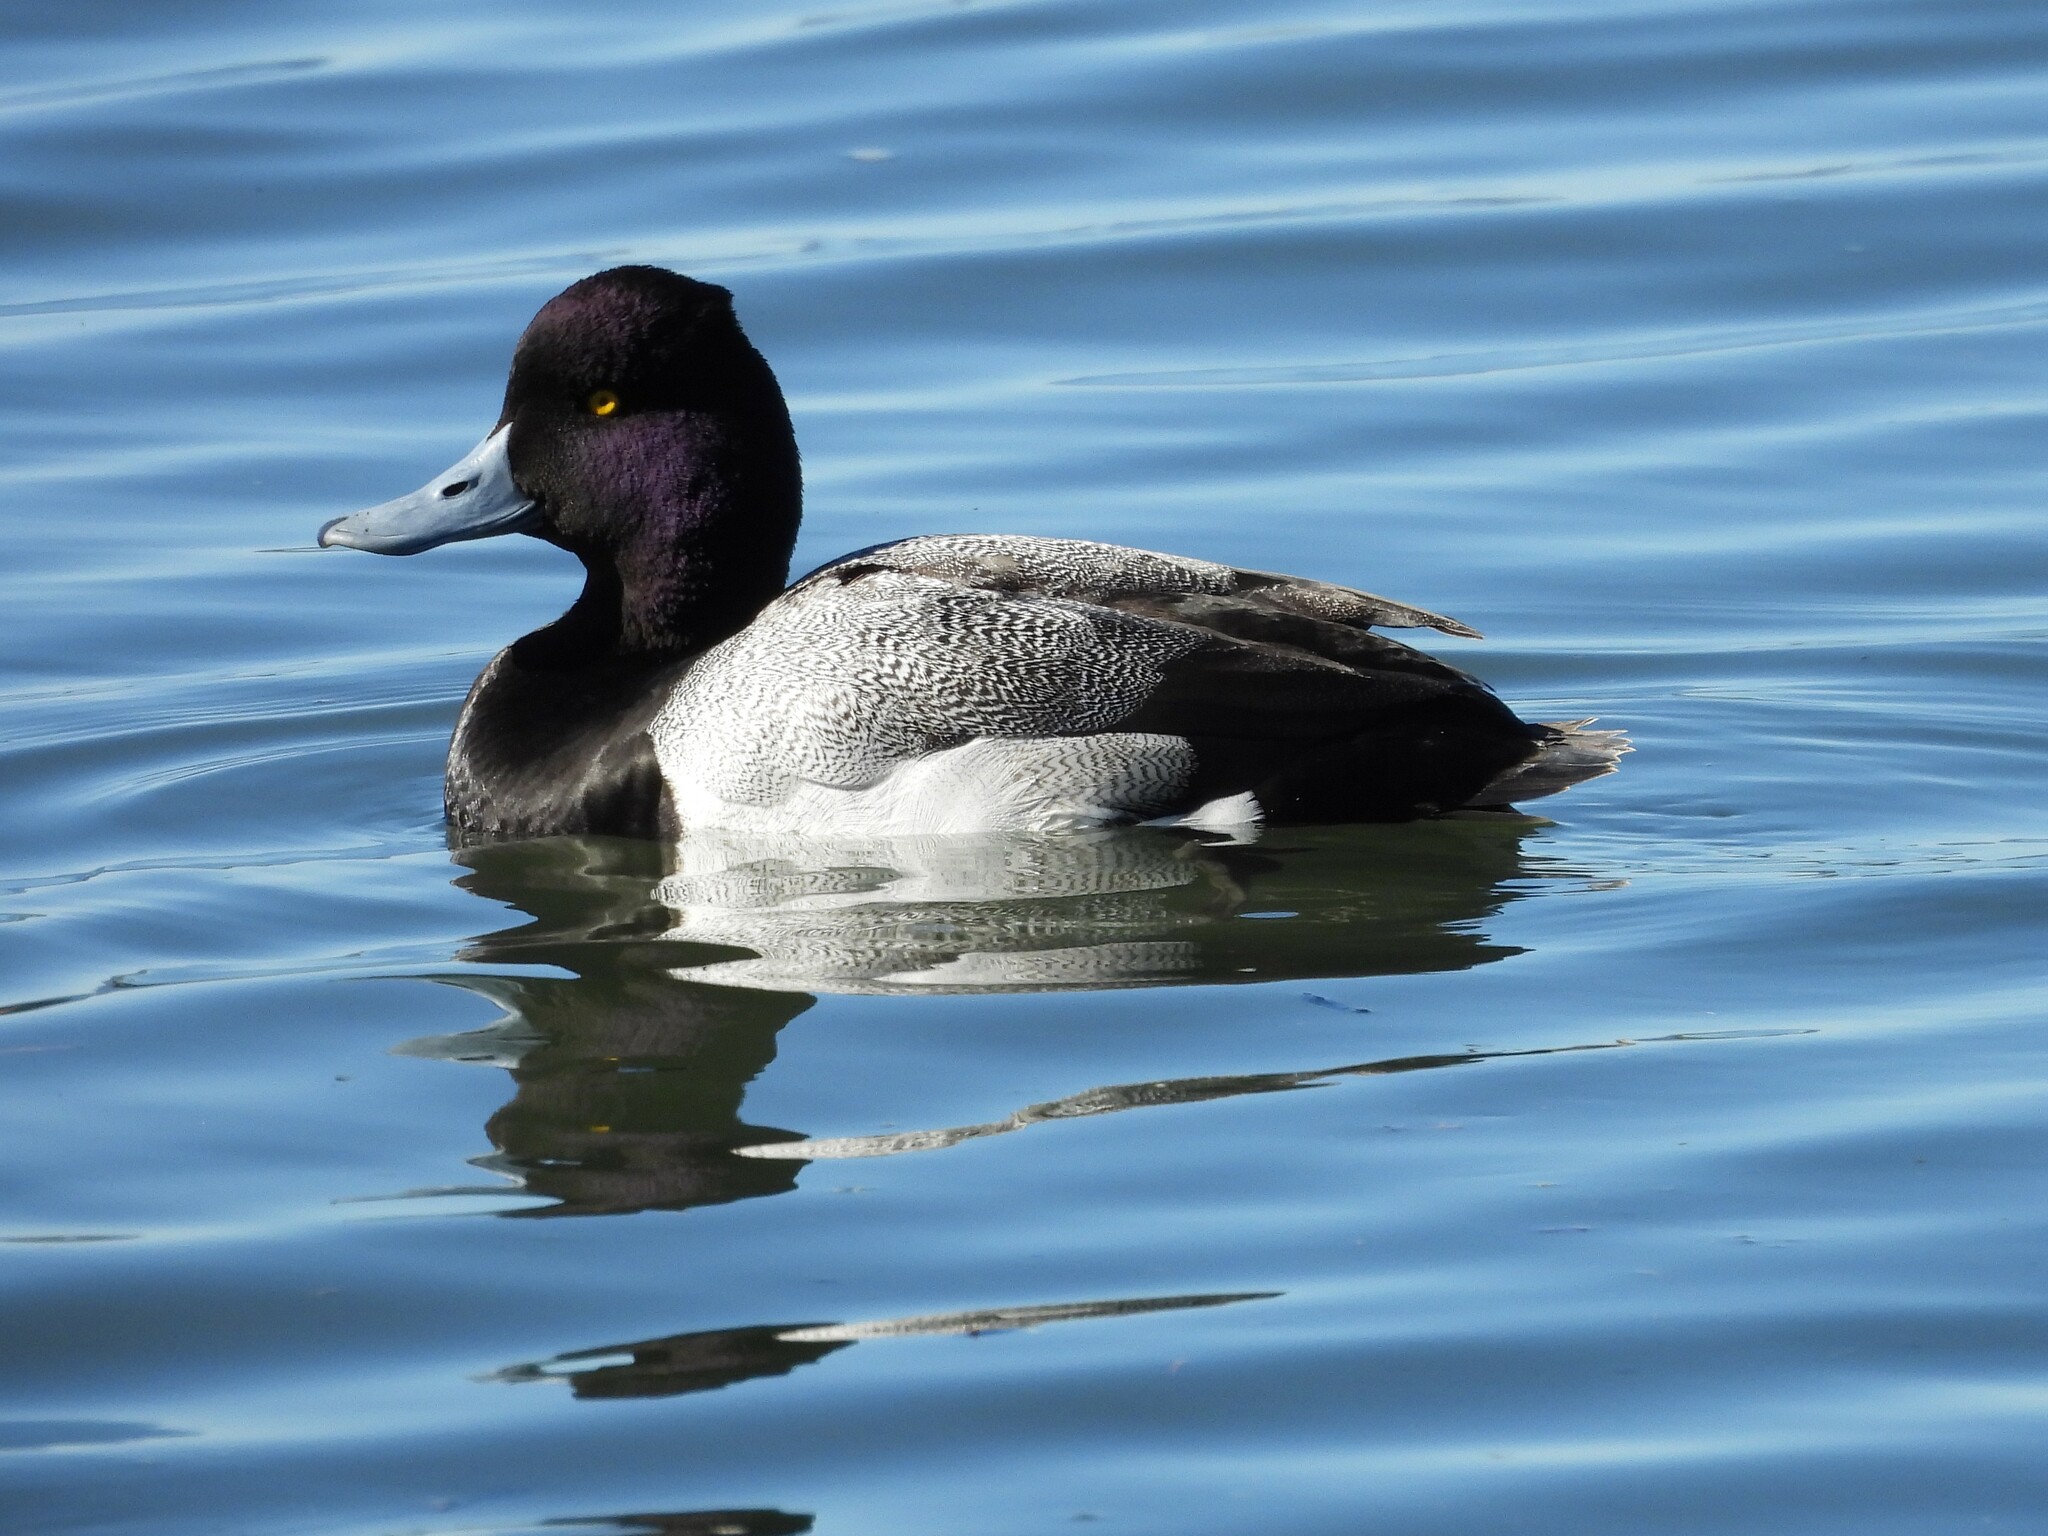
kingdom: Animalia
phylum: Chordata
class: Aves
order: Anseriformes
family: Anatidae
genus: Aythya
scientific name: Aythya affinis
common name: Lesser scaup
